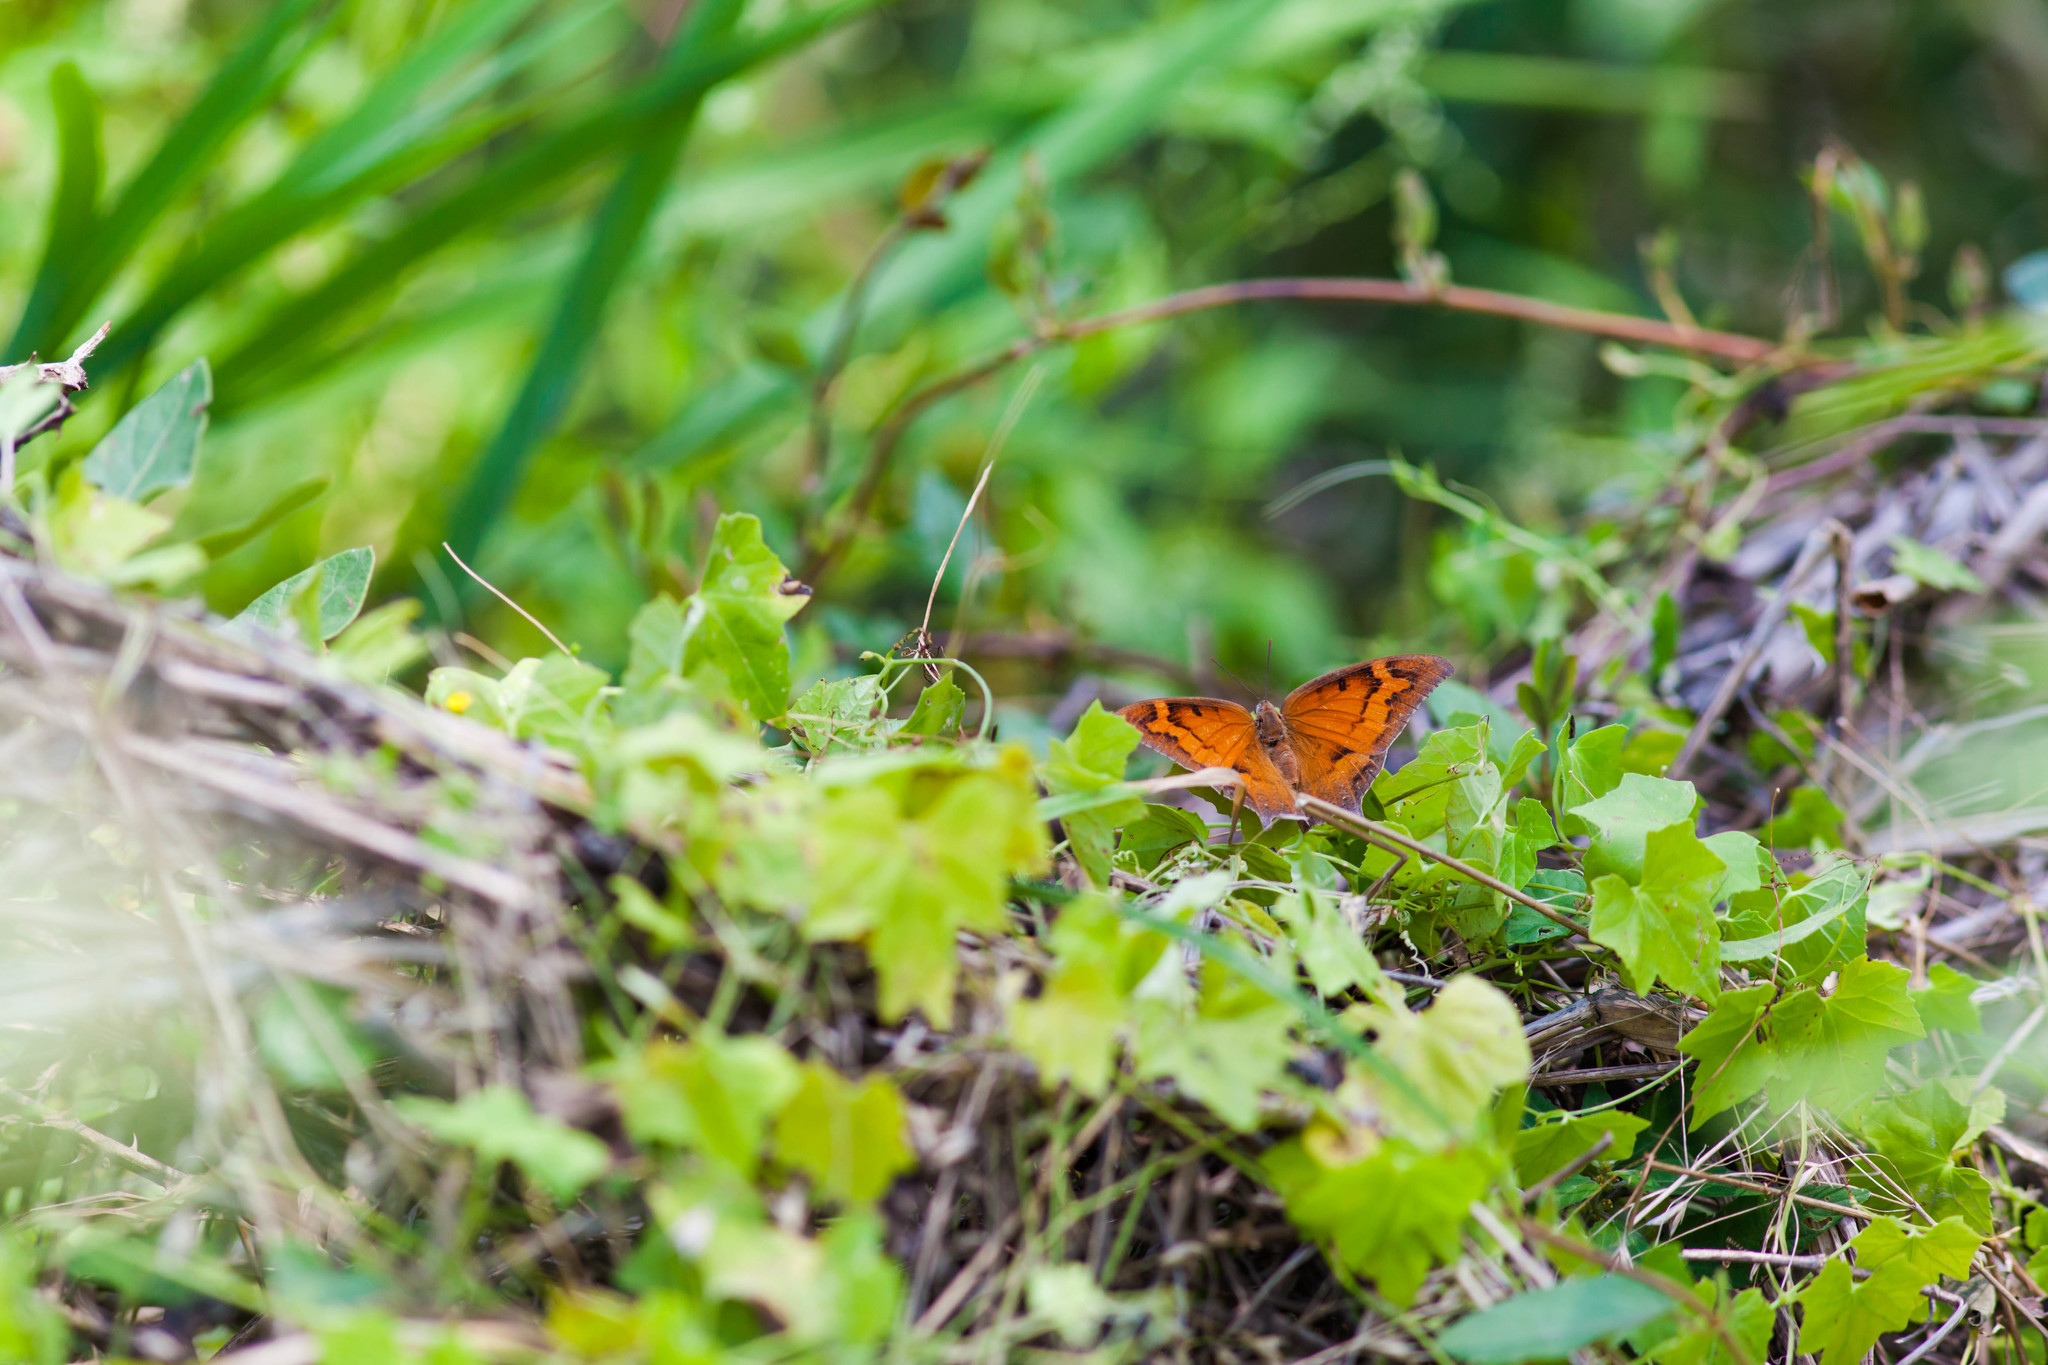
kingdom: Animalia
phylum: Arthropoda
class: Insecta
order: Lepidoptera
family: Nymphalidae
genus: Anaea
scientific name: Anaea andria
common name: Goatweed leafwing
